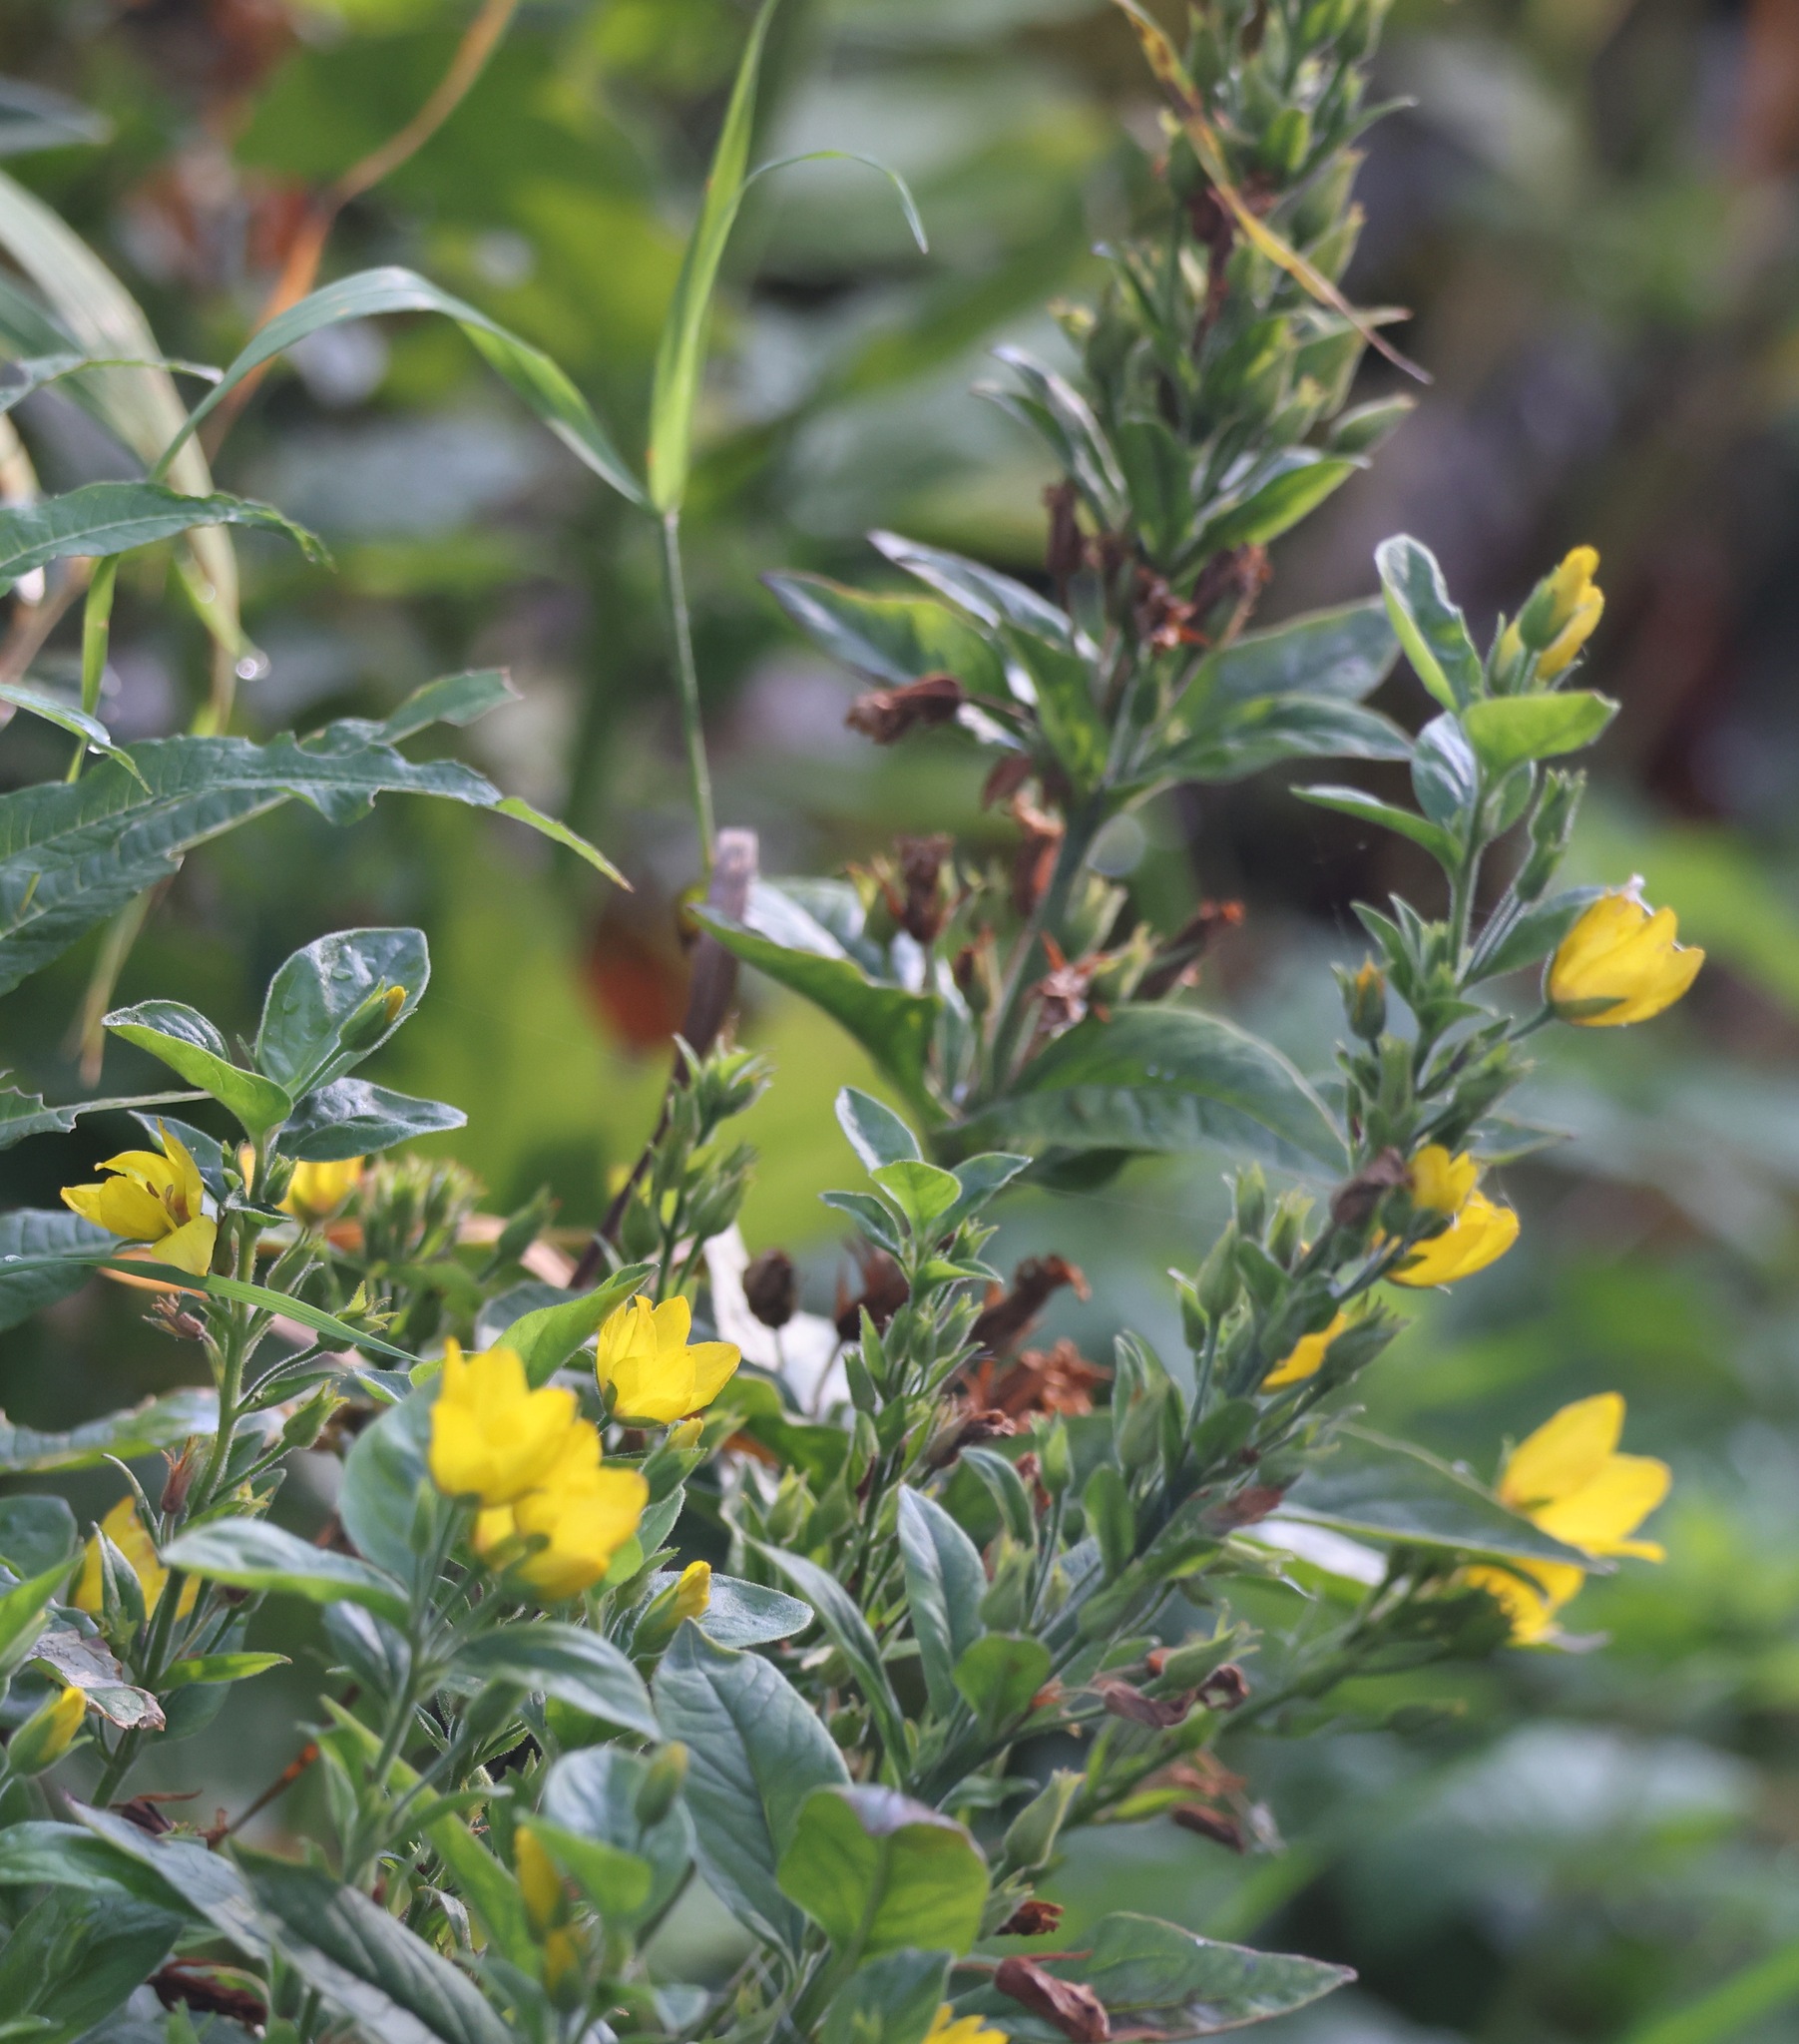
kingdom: Plantae
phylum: Tracheophyta
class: Magnoliopsida
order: Ericales
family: Primulaceae
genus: Lysimachia
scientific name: Lysimachia punctata
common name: Dotted loosestrife
